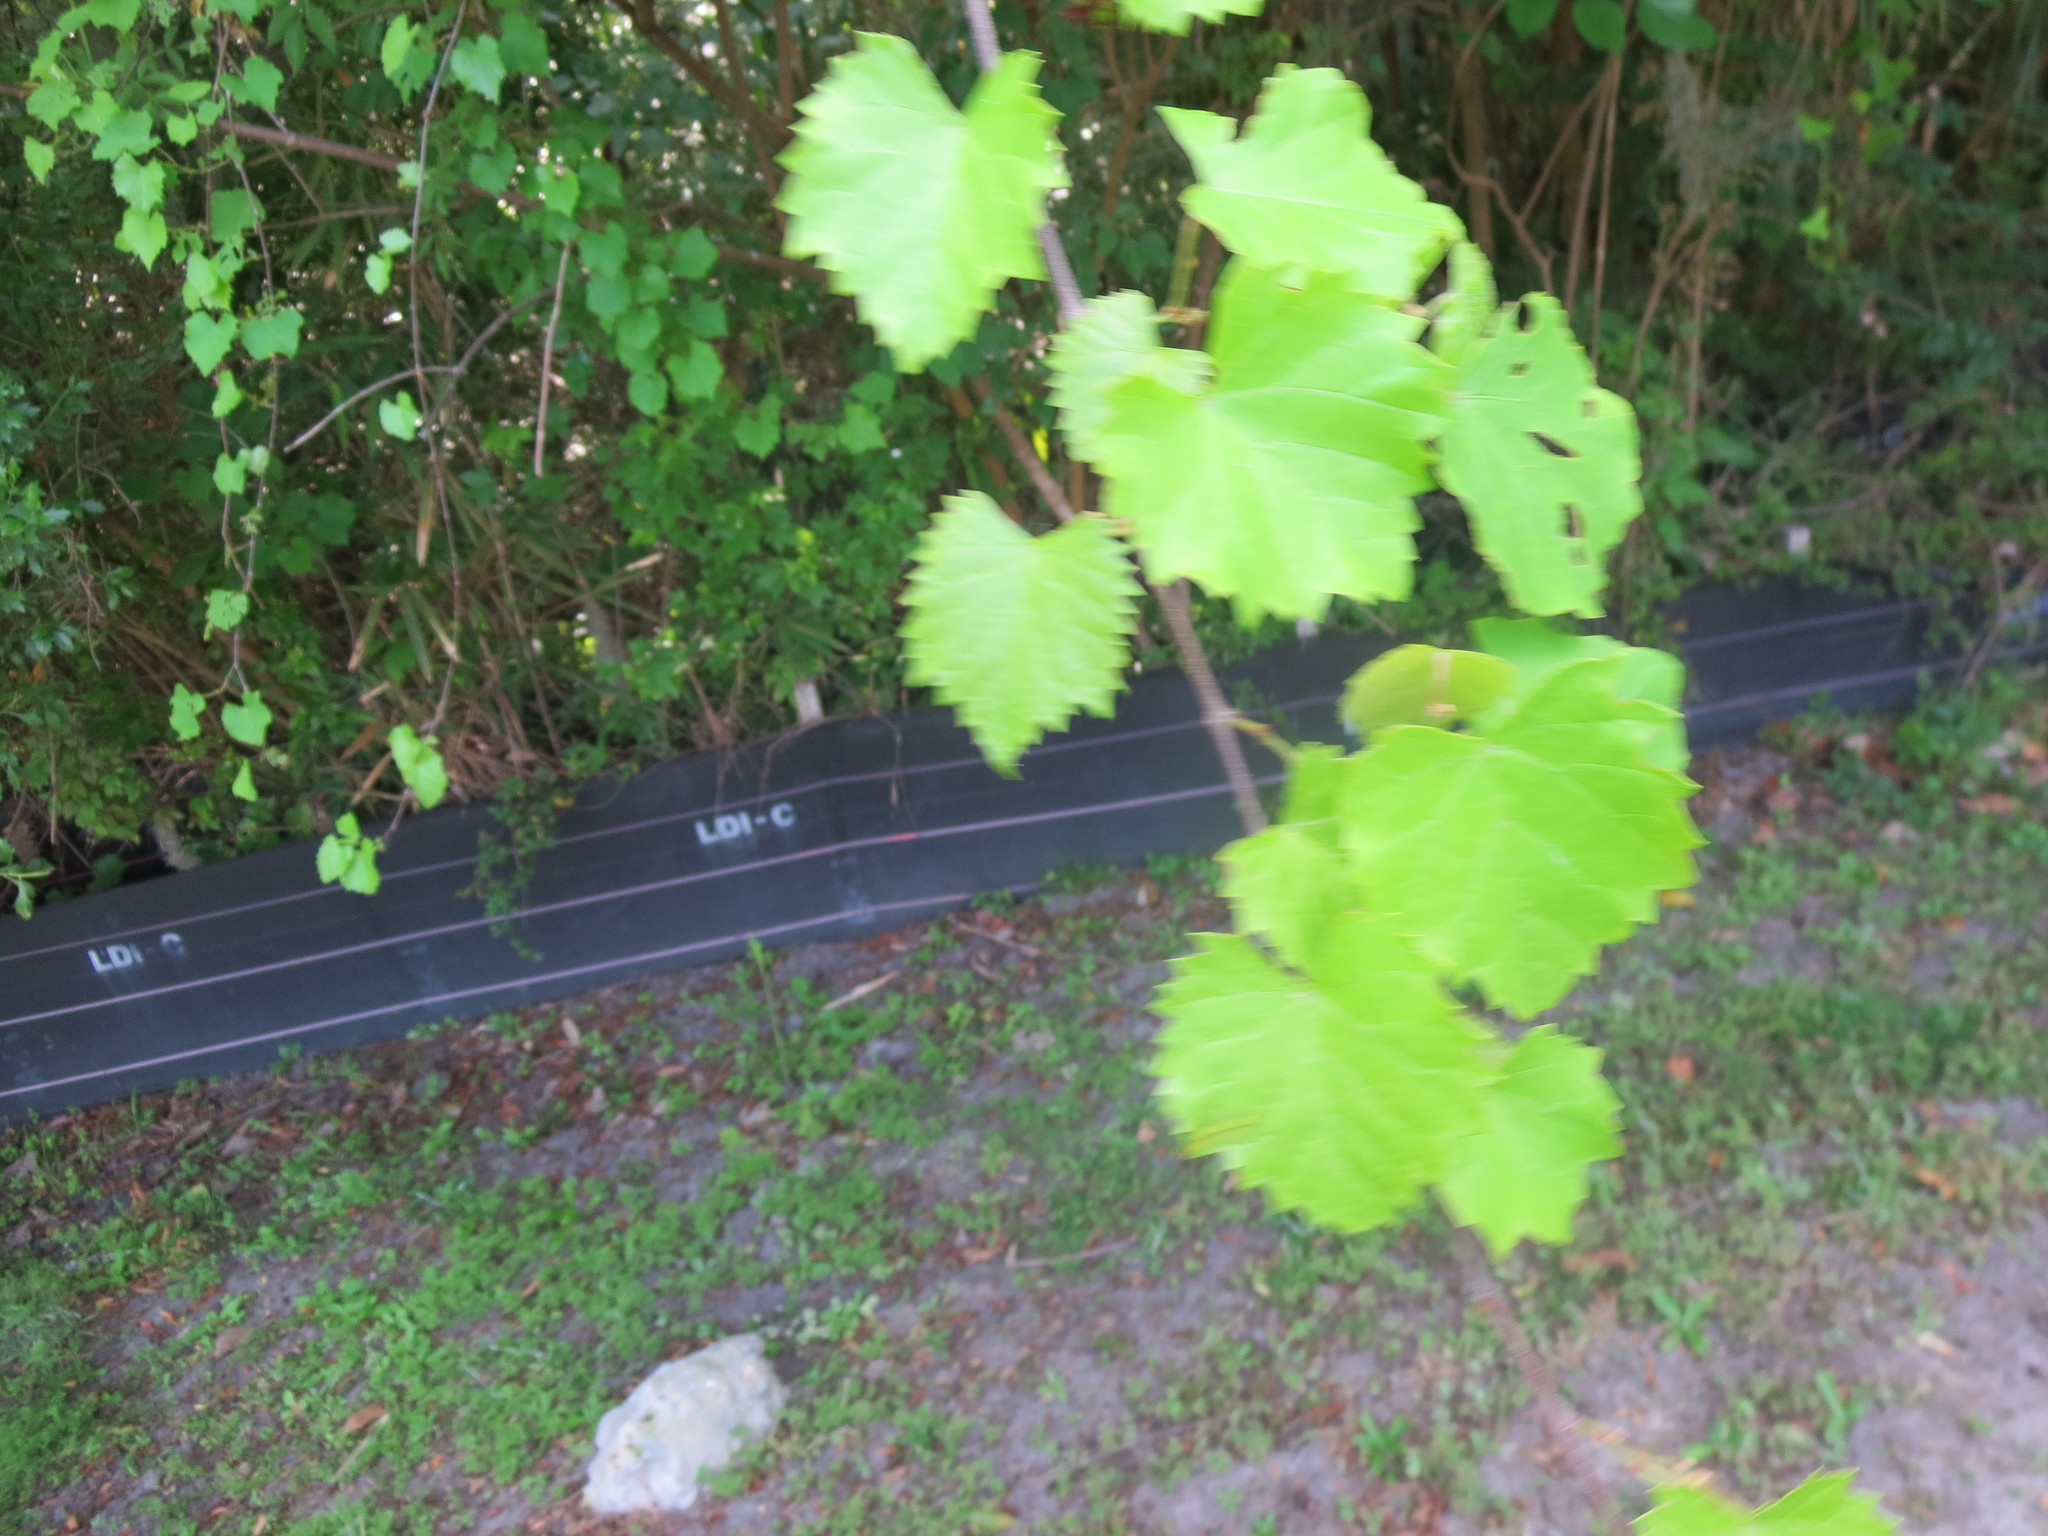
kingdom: Plantae
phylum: Tracheophyta
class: Magnoliopsida
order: Vitales
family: Vitaceae
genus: Vitis
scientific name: Vitis rotundifolia
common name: Muscadine grape
